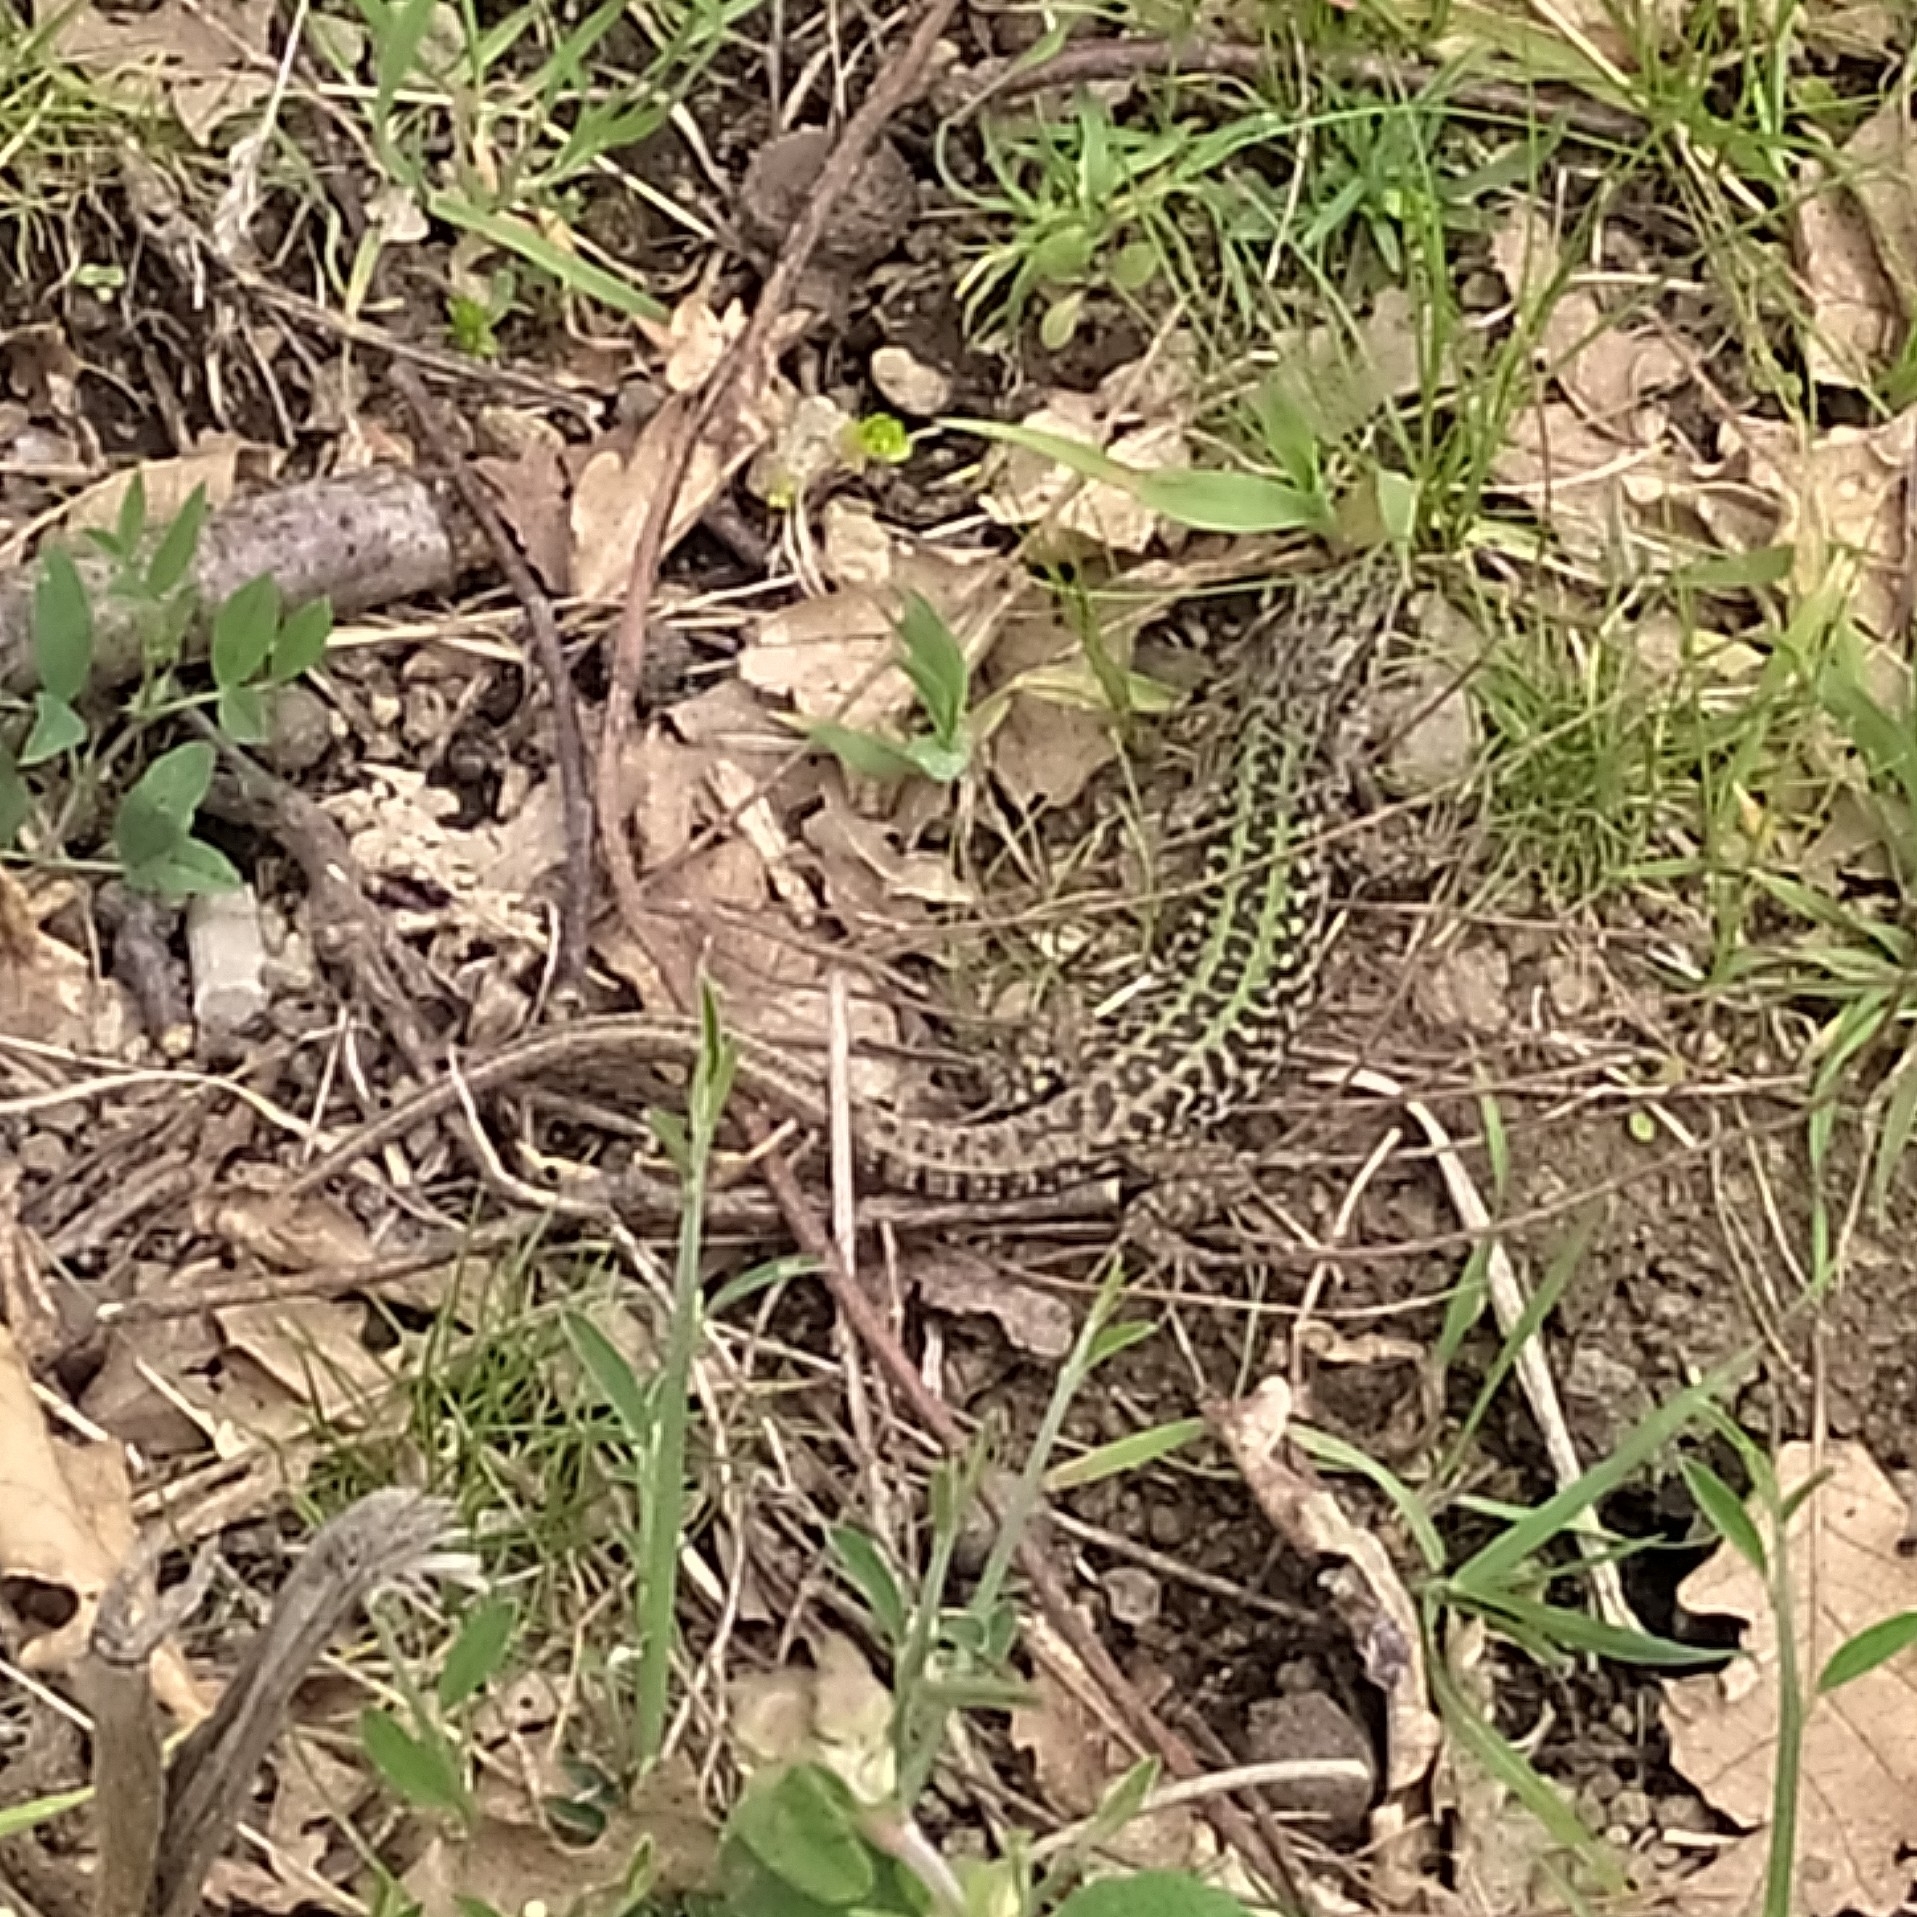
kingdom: Animalia
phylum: Chordata
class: Squamata
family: Lacertidae
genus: Podarcis
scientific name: Podarcis siculus
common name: Italian wall lizard
